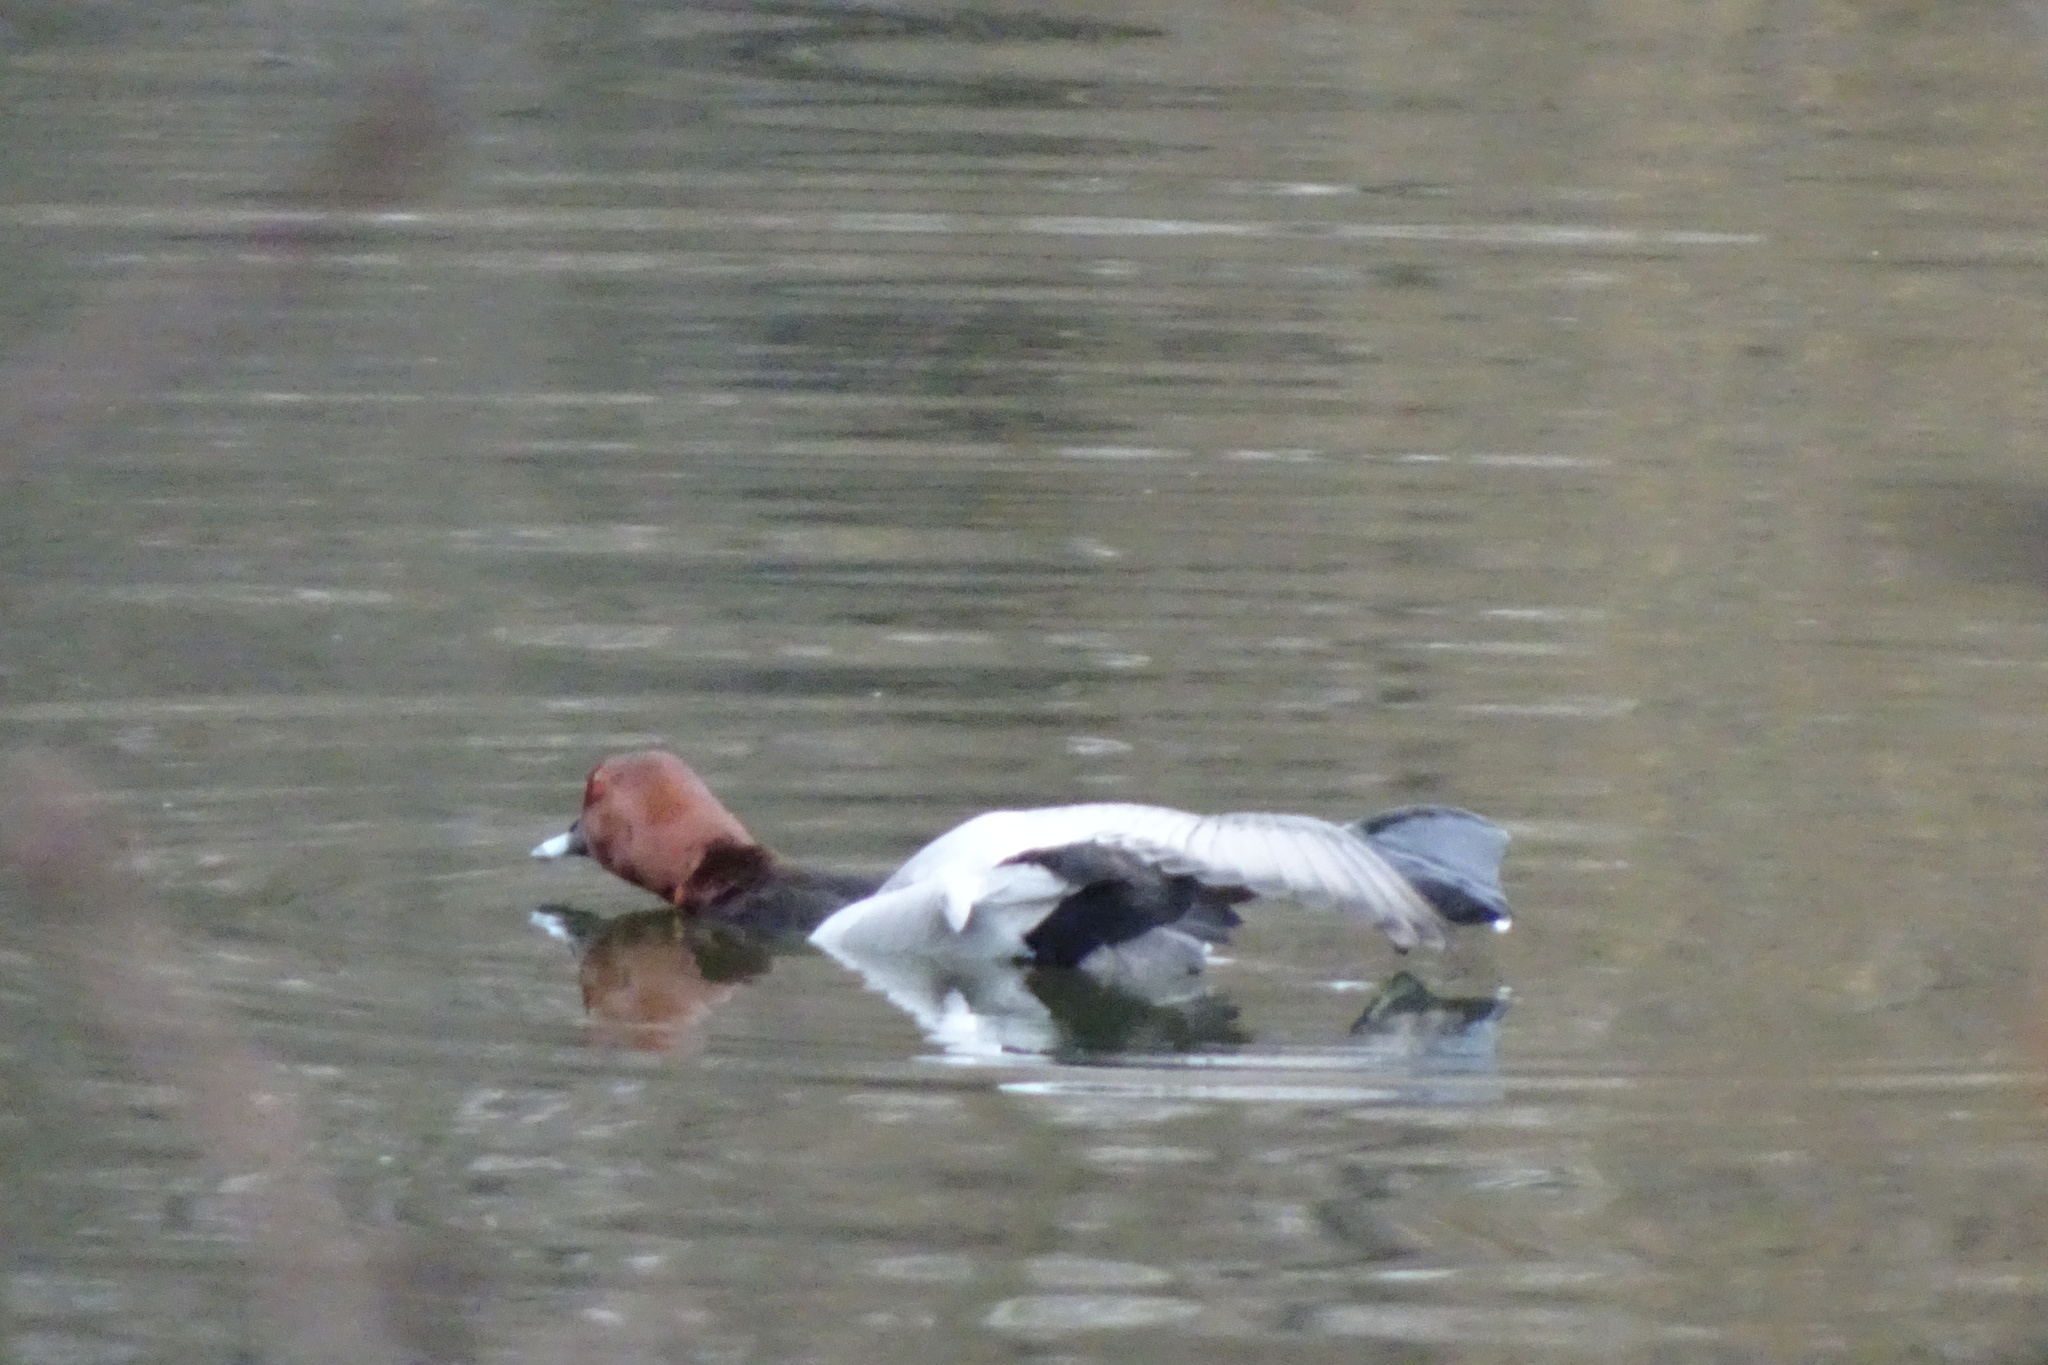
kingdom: Animalia
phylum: Chordata
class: Aves
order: Anseriformes
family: Anatidae
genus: Aythya
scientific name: Aythya ferina
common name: Common pochard
